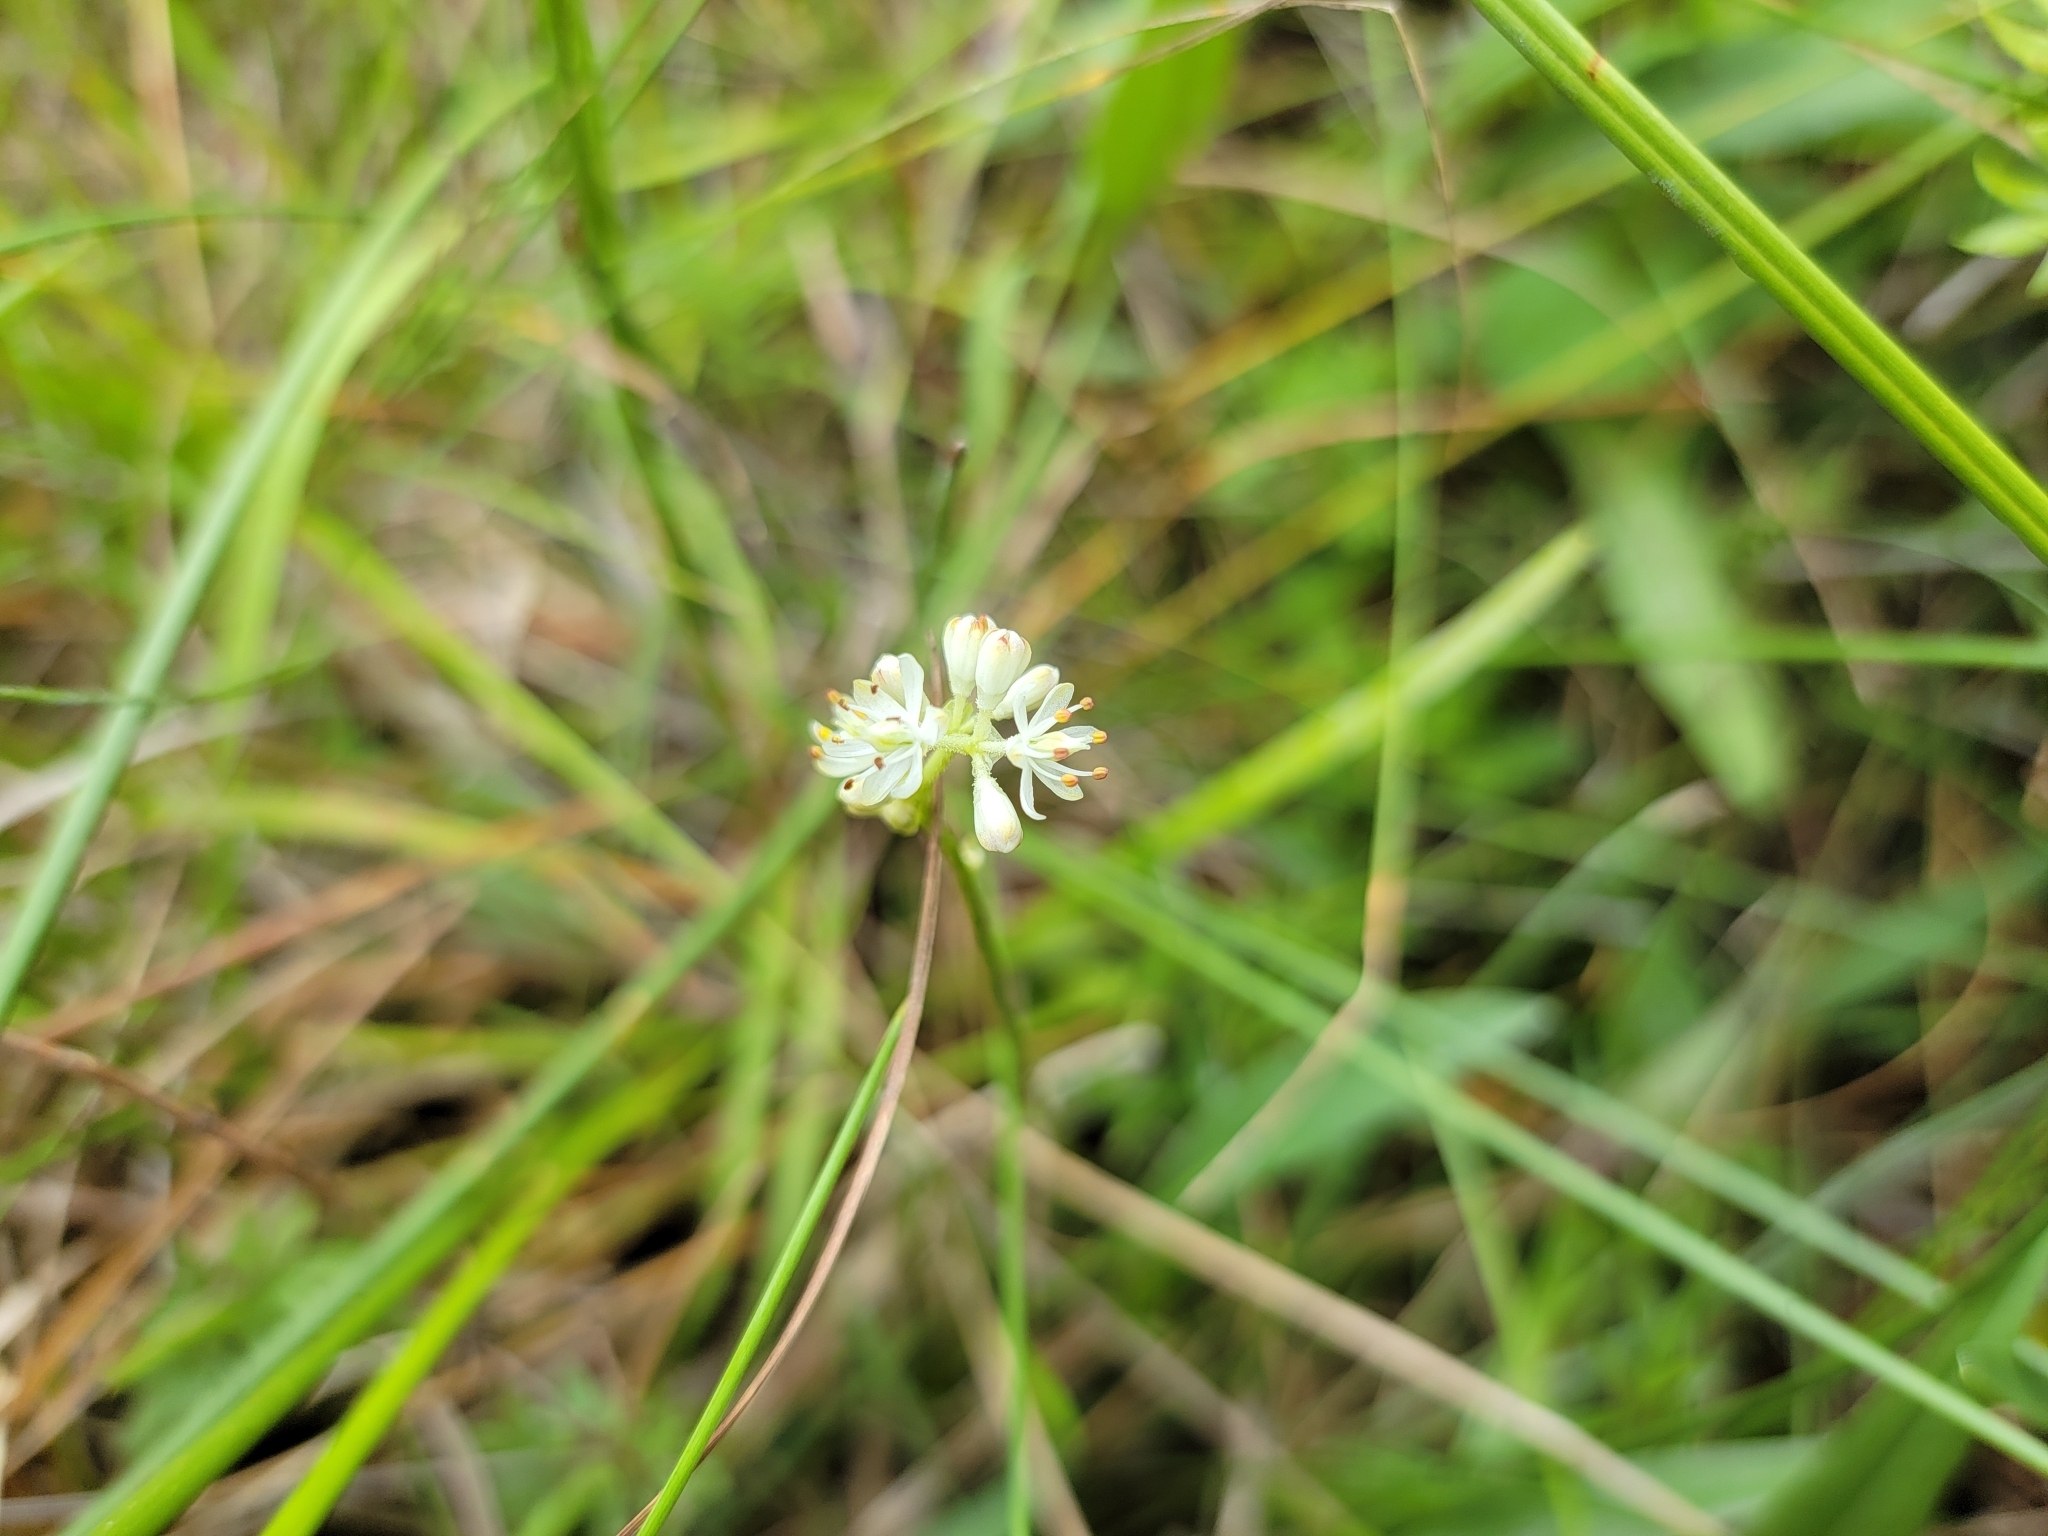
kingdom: Plantae
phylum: Tracheophyta
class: Liliopsida
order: Alismatales
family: Tofieldiaceae
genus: Triantha
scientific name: Triantha glutinosa
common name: Glutinous tofieldia
